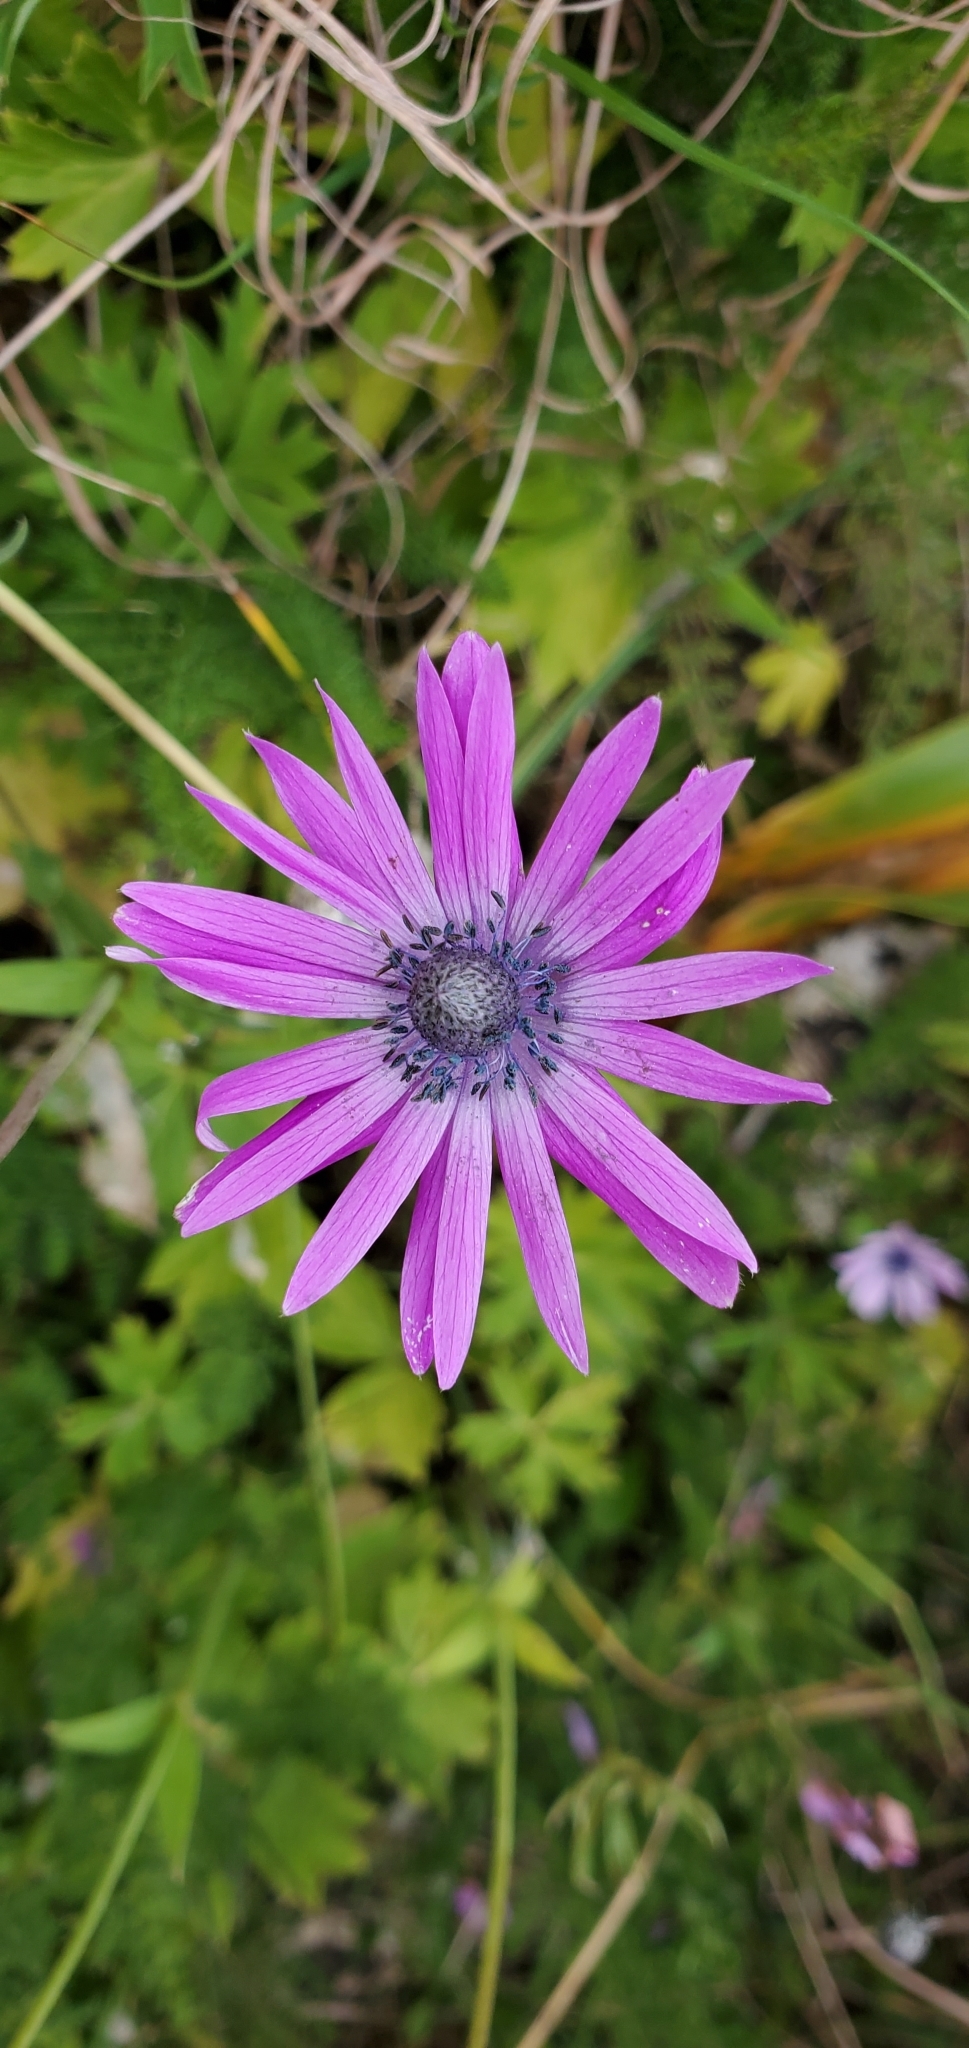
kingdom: Plantae
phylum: Tracheophyta
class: Magnoliopsida
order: Ranunculales
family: Ranunculaceae
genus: Anemone
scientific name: Anemone hortensis
